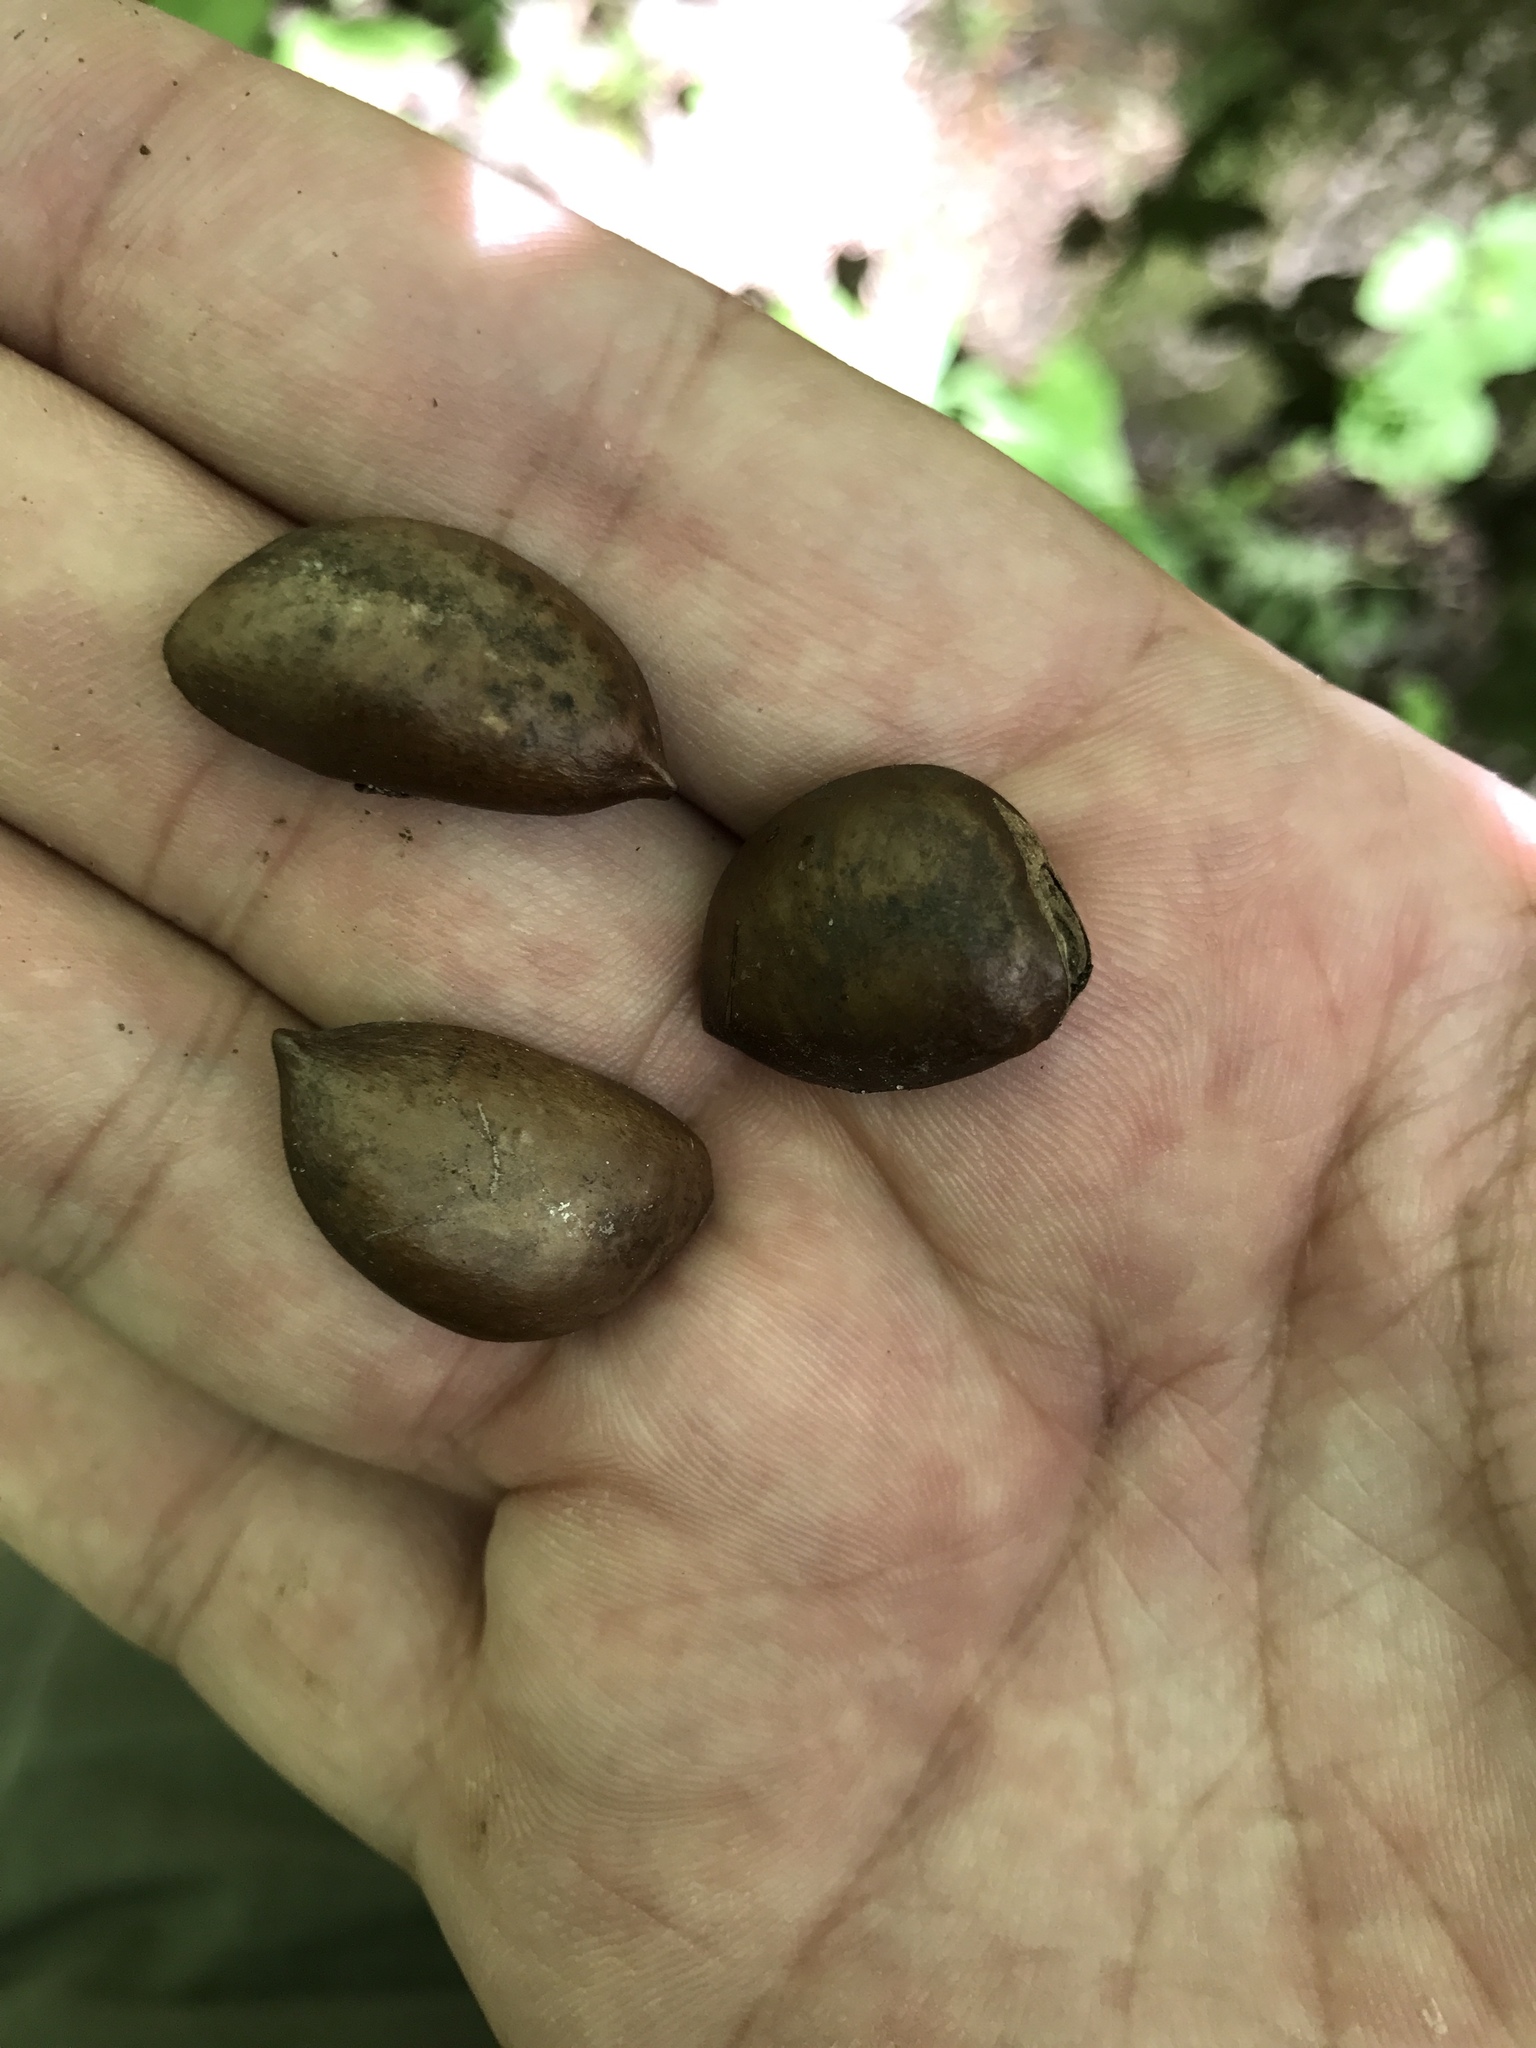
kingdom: Plantae
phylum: Tracheophyta
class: Magnoliopsida
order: Magnoliales
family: Annonaceae
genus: Asimina
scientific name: Asimina triloba
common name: Dog-banana
